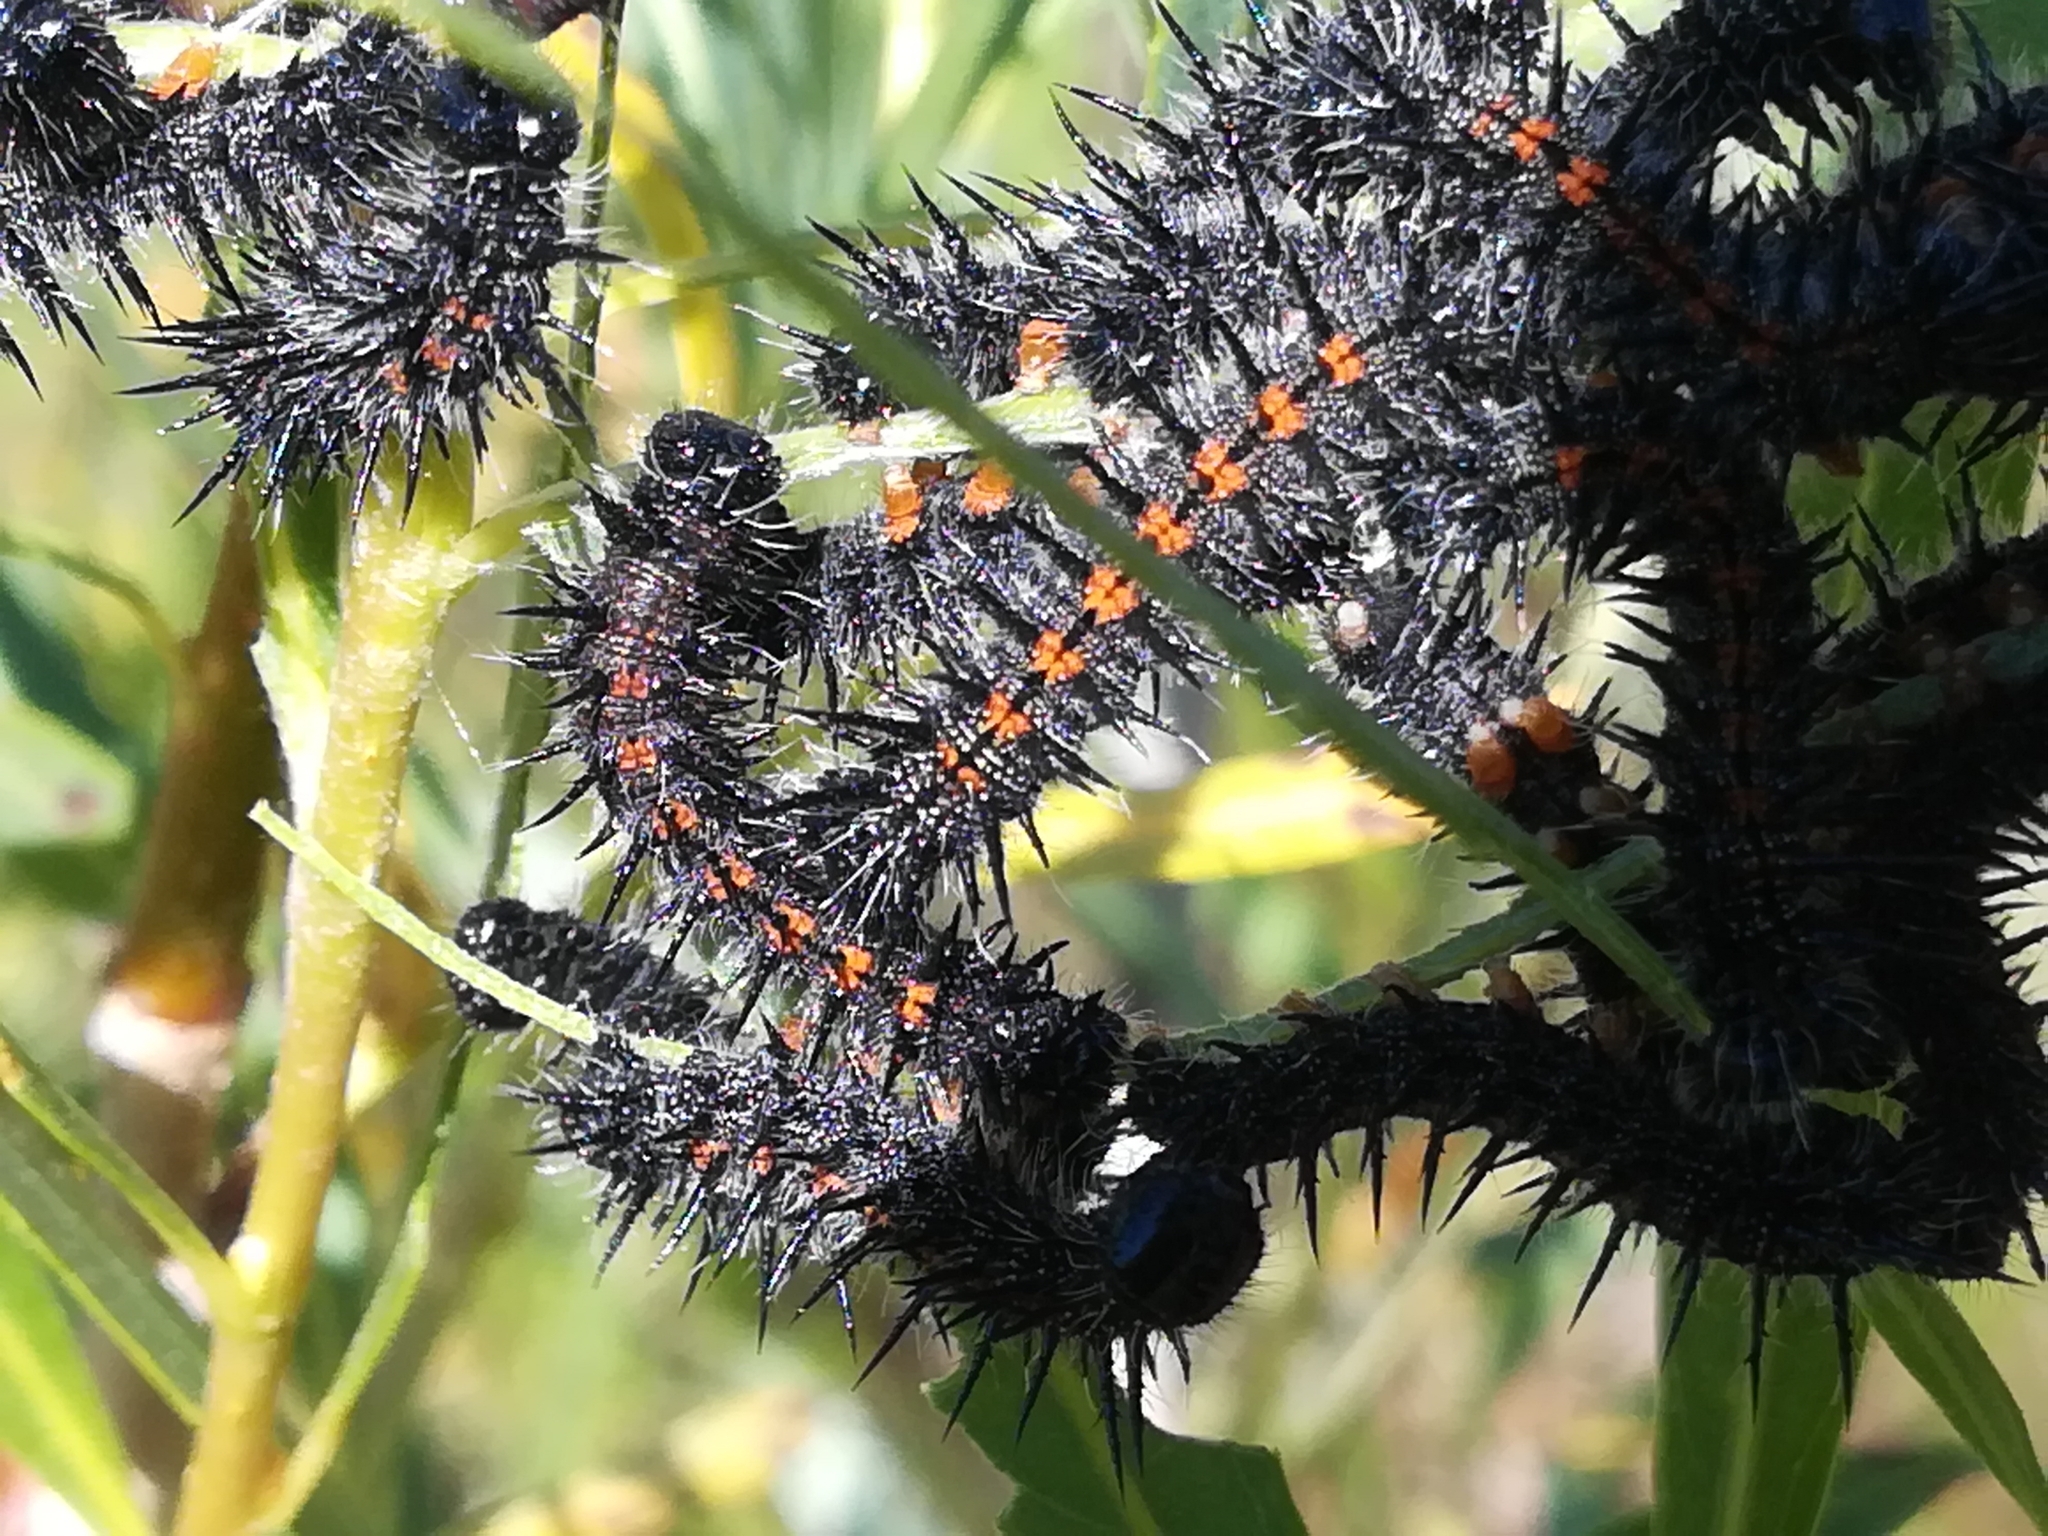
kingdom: Animalia
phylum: Arthropoda
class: Insecta
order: Lepidoptera
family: Nymphalidae
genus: Nymphalis
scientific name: Nymphalis antiopa
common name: Camberwell beauty
